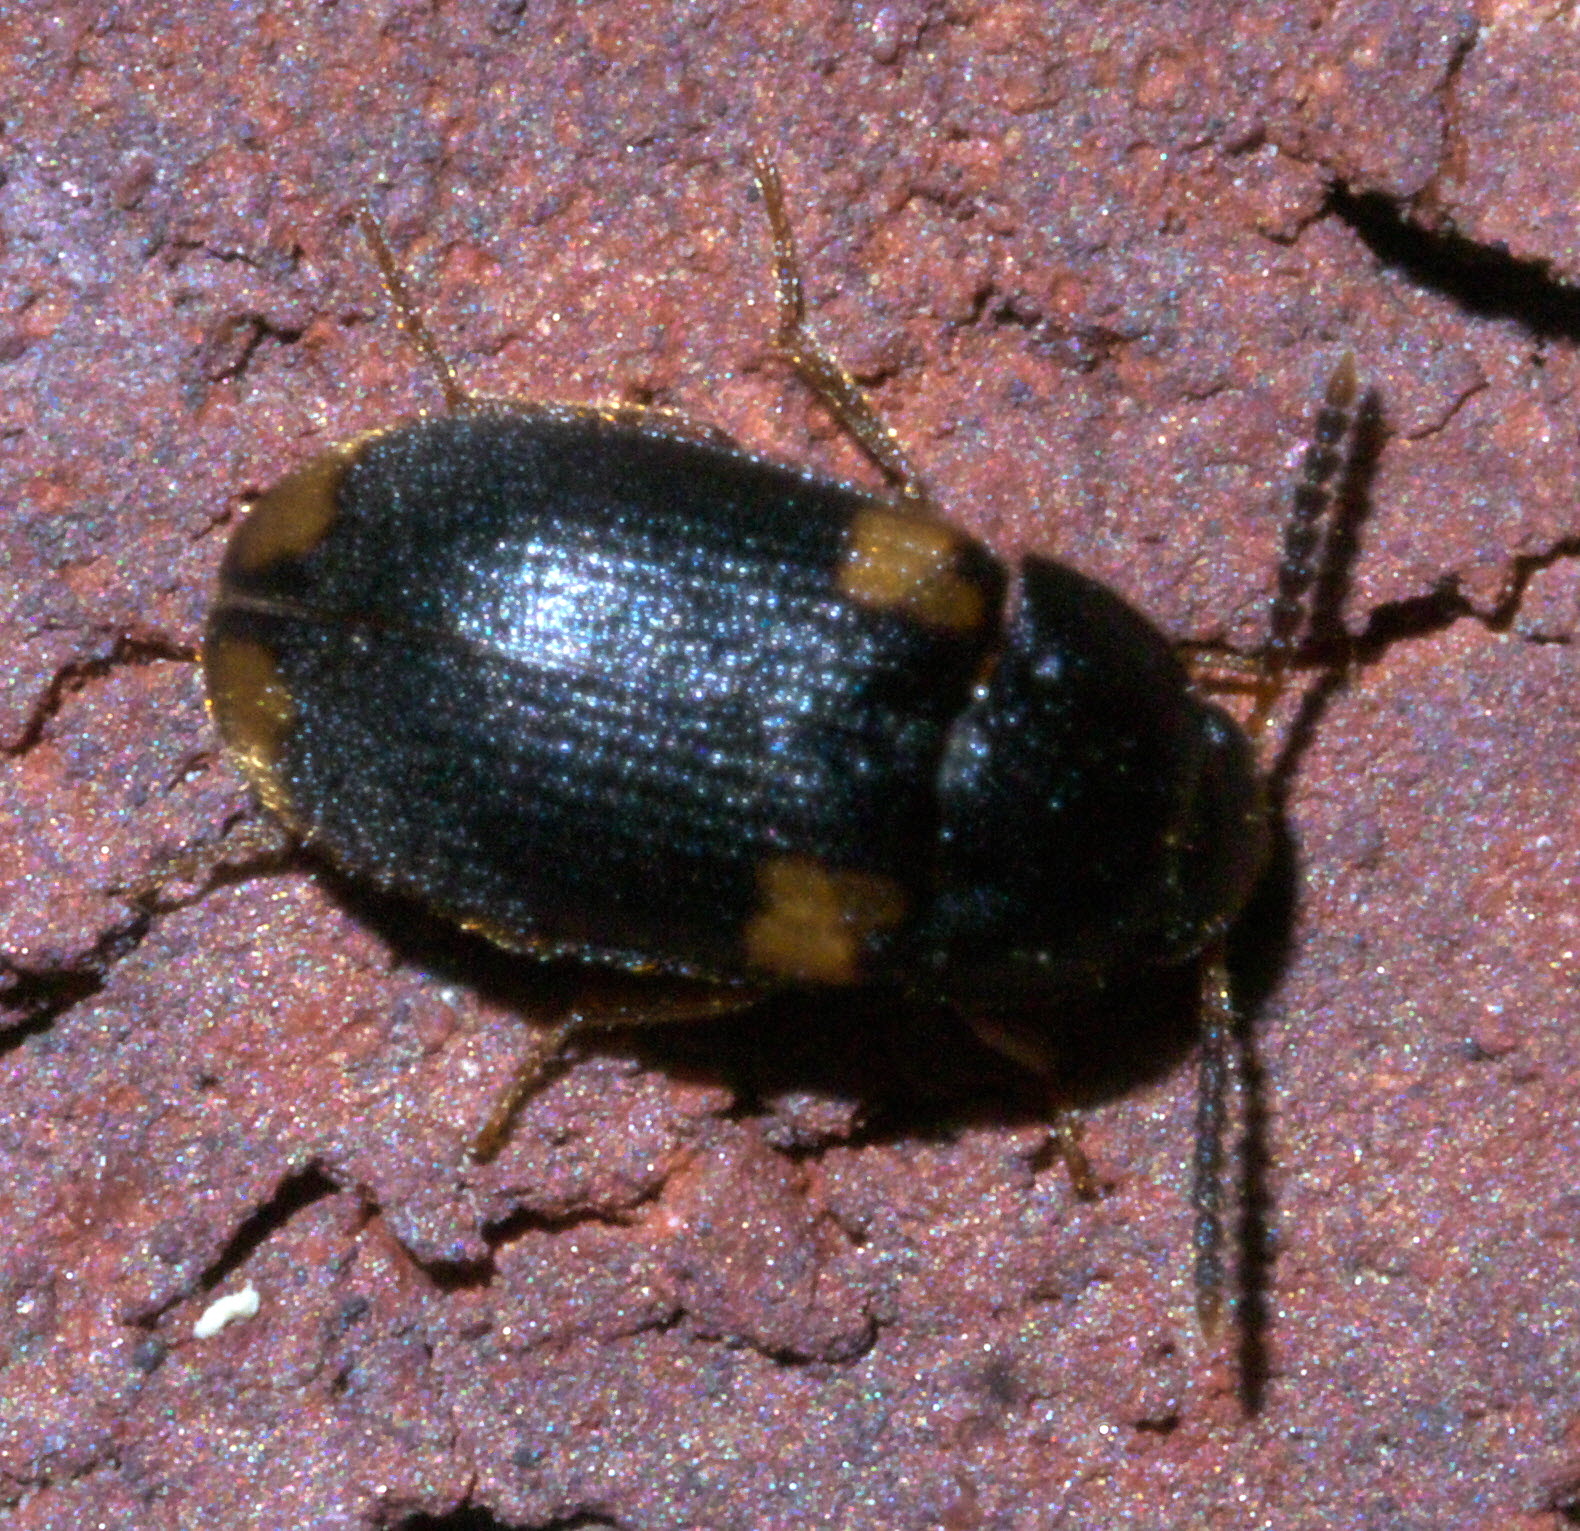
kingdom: Animalia
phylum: Arthropoda
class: Insecta
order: Coleoptera
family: Mycetophagidae
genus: Mycetophagus
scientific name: Mycetophagus serrulatus
